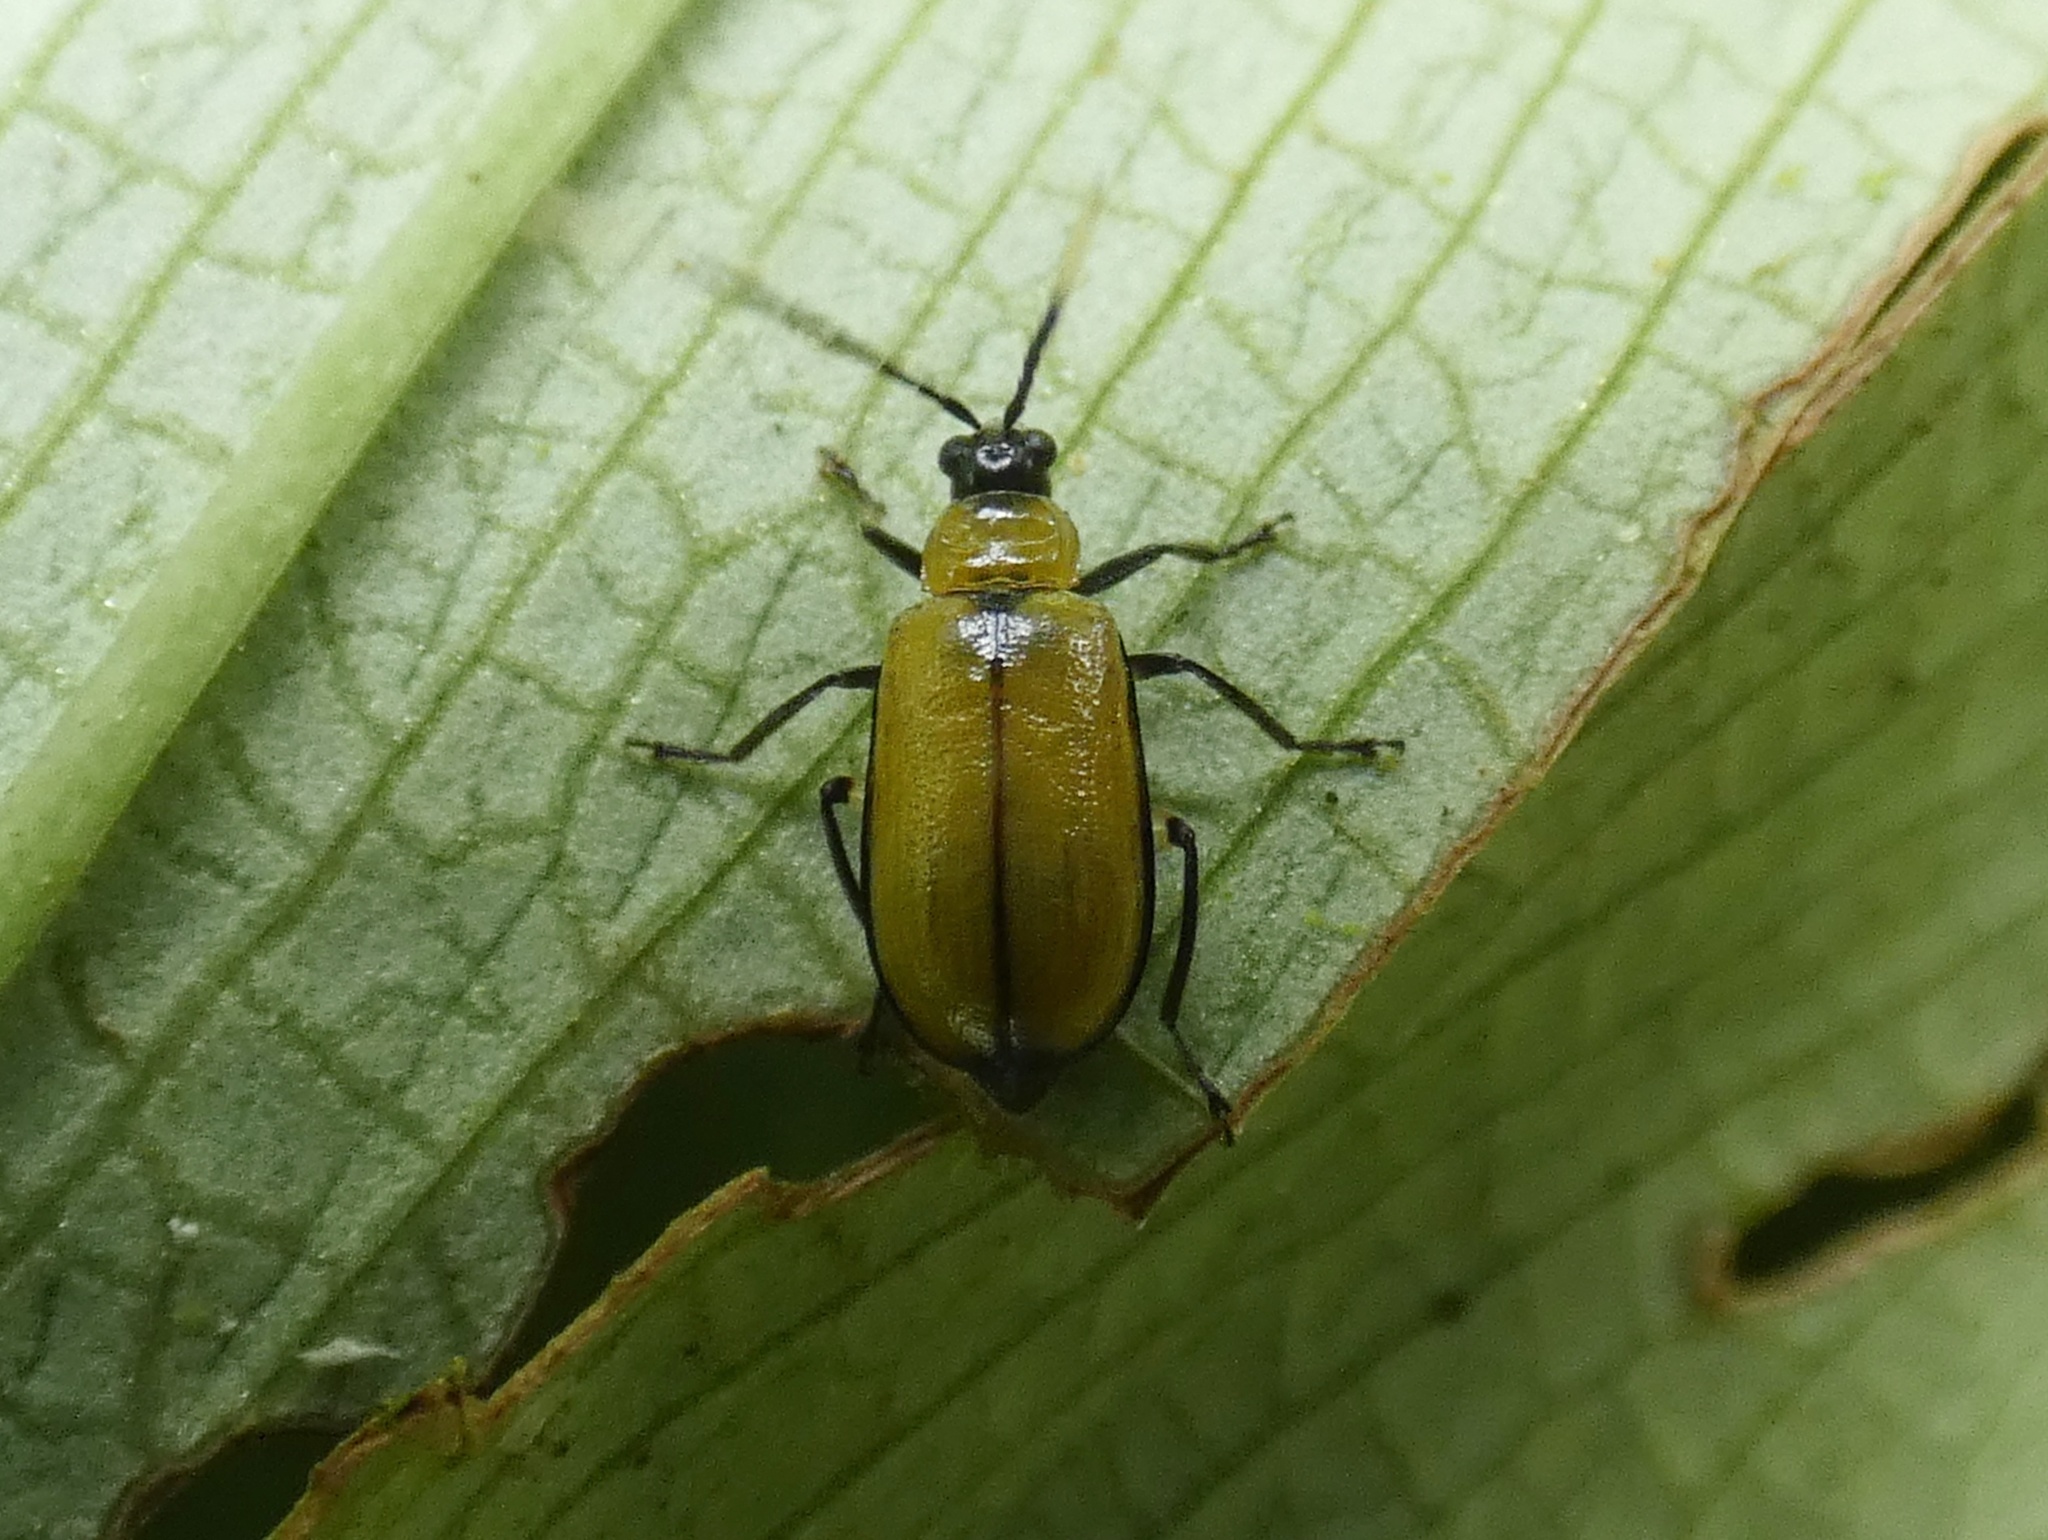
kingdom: Animalia
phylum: Arthropoda
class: Insecta
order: Coleoptera
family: Chrysomelidae
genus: Diabrotica
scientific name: Diabrotica
